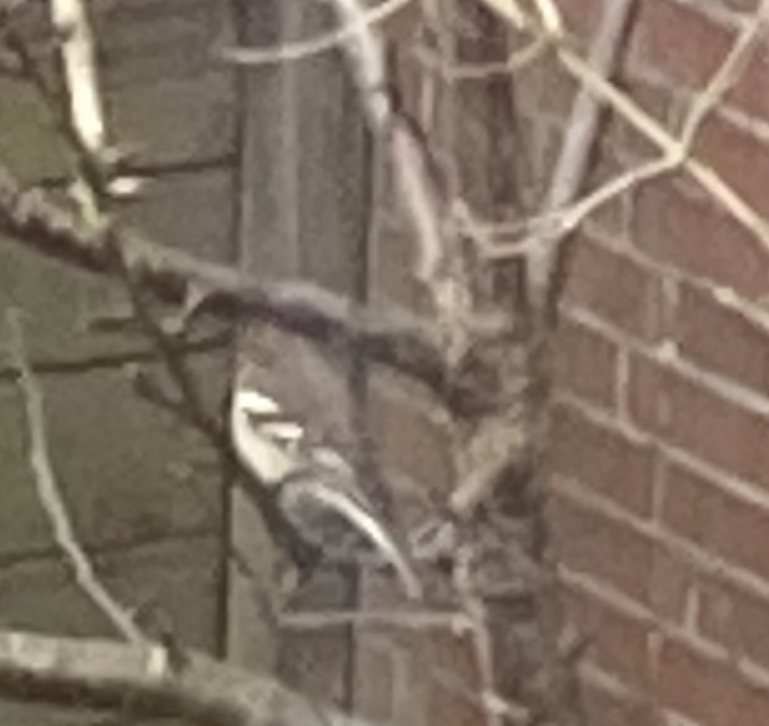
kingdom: Animalia
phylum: Chordata
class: Aves
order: Passeriformes
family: Fringillidae
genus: Fringilla
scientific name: Fringilla coelebs
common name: Common chaffinch
